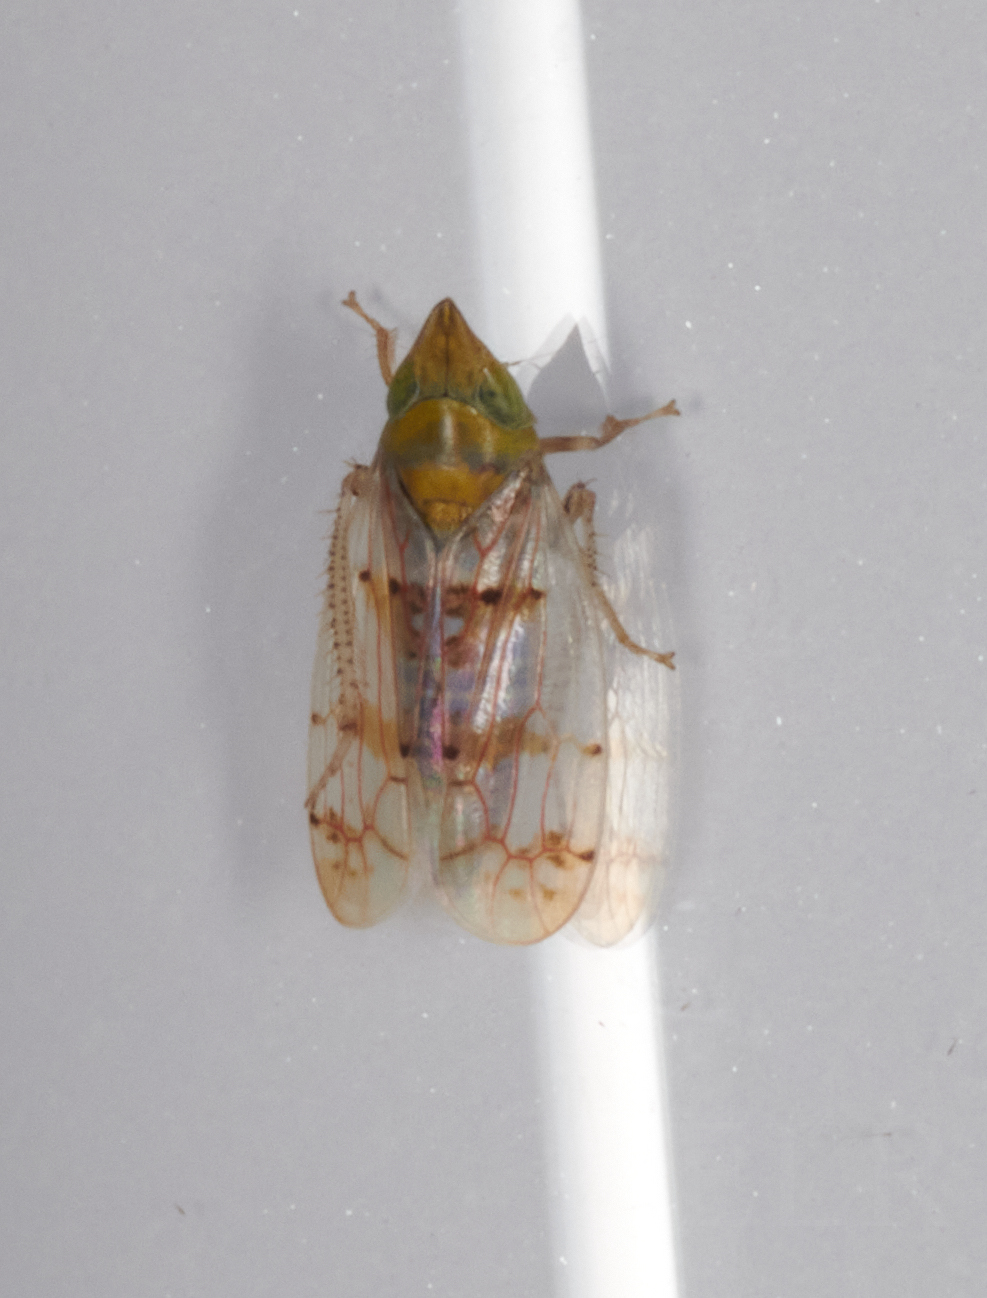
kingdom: Animalia
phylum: Arthropoda
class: Insecta
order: Hemiptera
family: Cicadellidae
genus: Japananus
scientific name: Japananus hyalinus
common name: The japanese maple leafhopper
